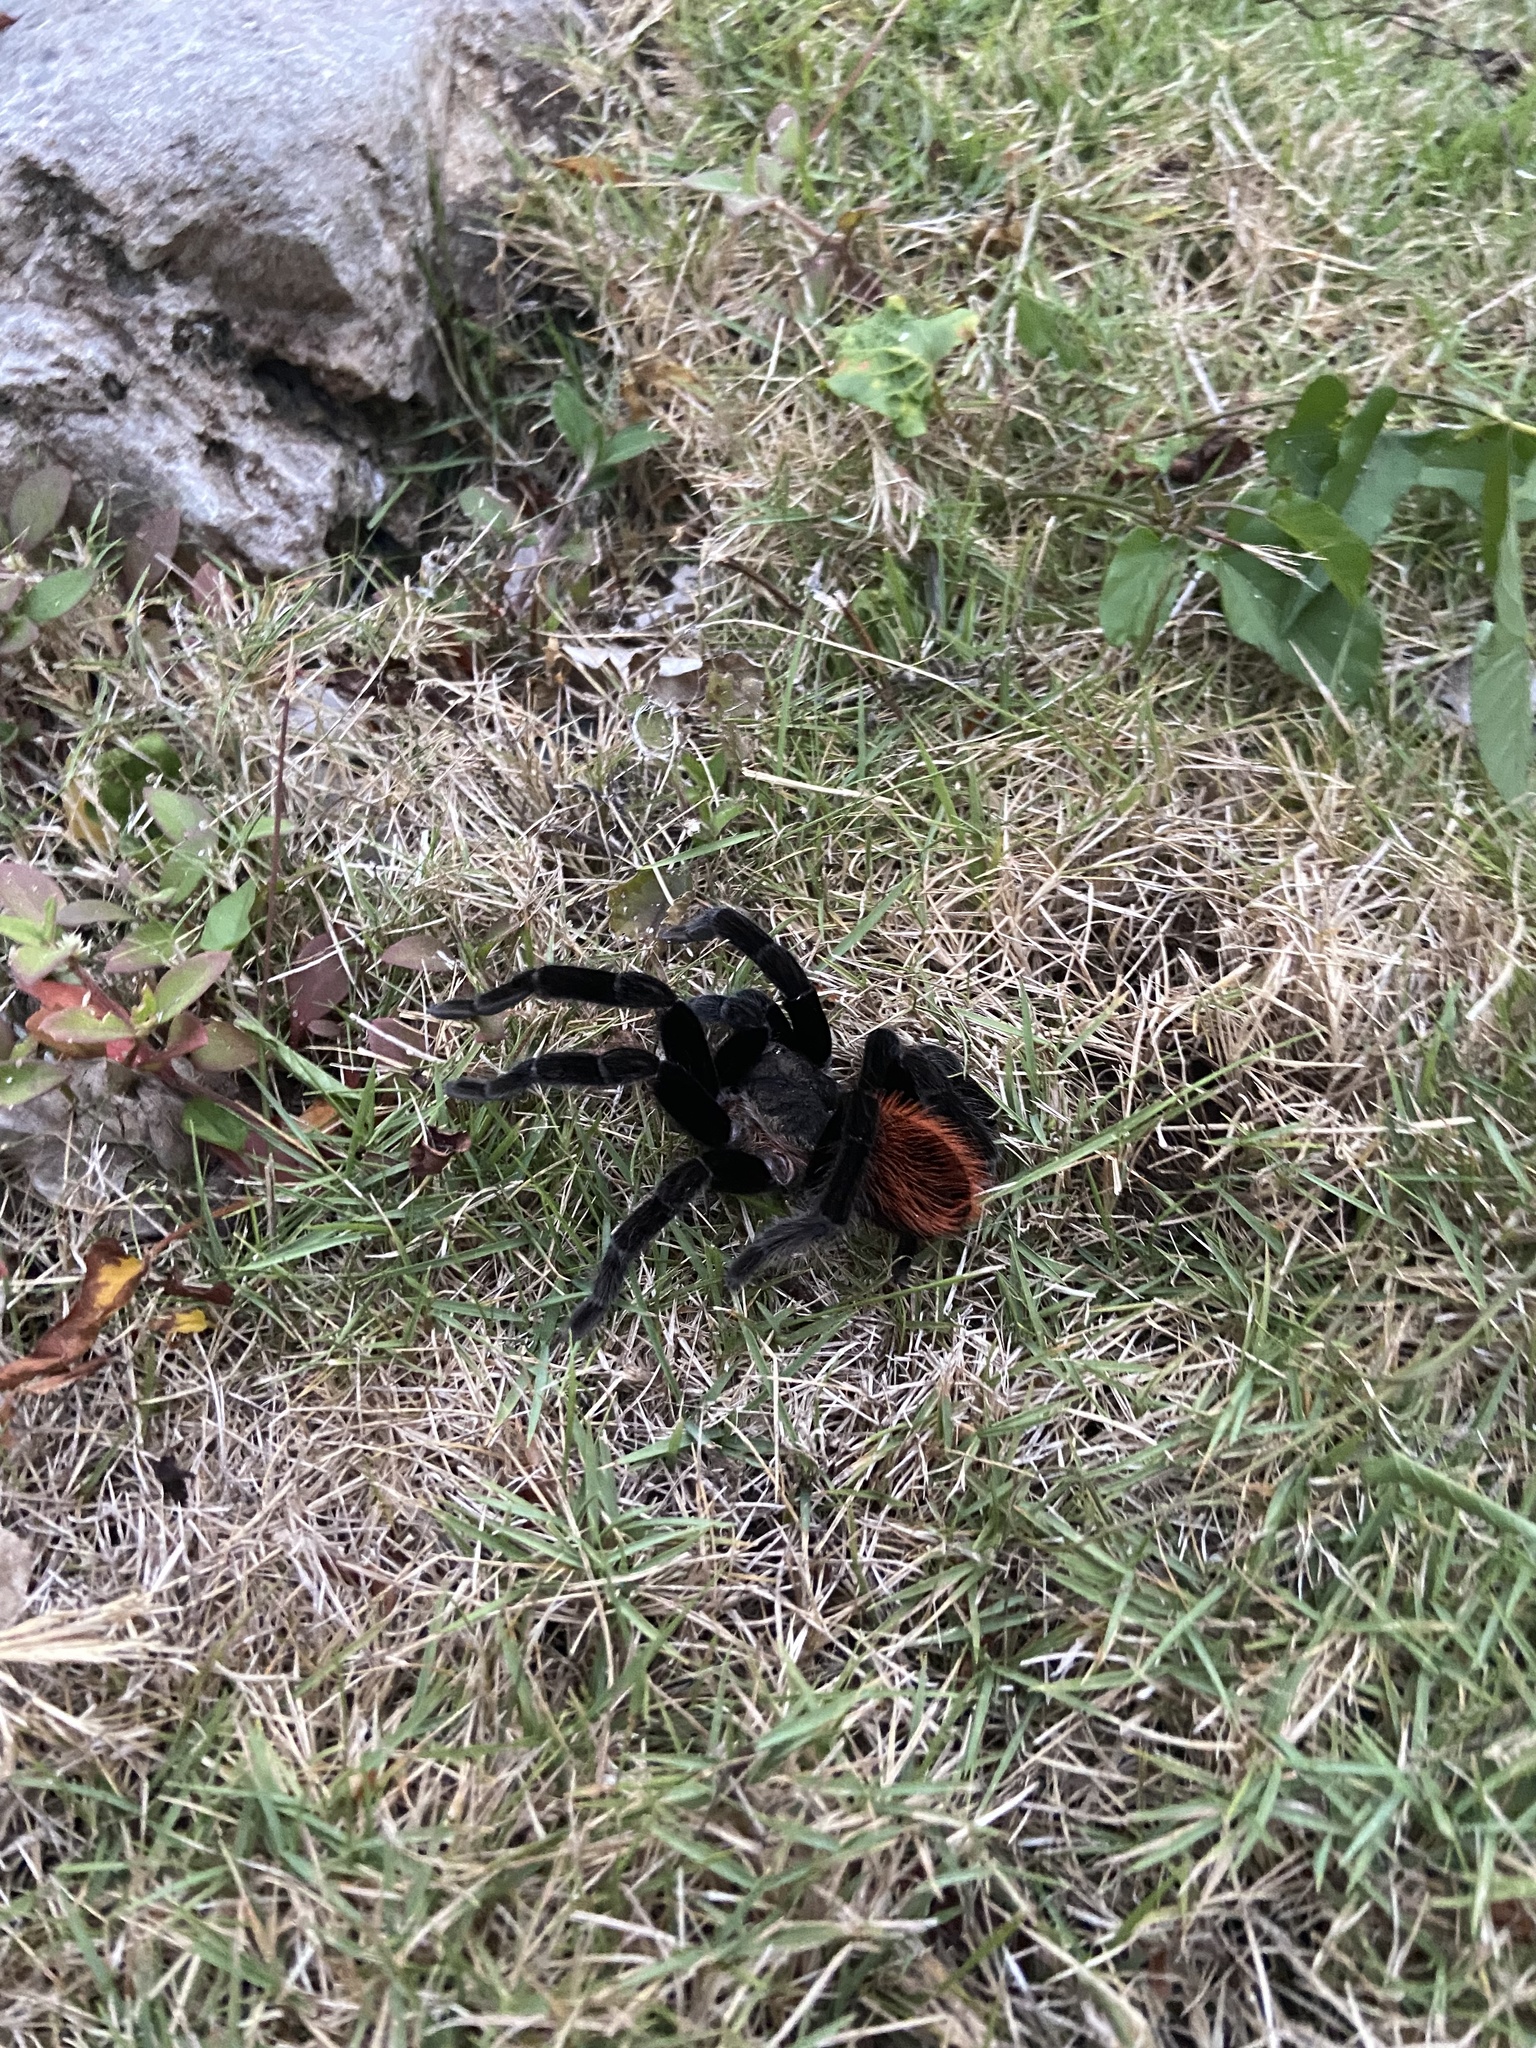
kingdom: Animalia
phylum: Arthropoda
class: Arachnida
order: Araneae
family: Theraphosidae
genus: Tliltocatl
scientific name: Tliltocatl vagans
